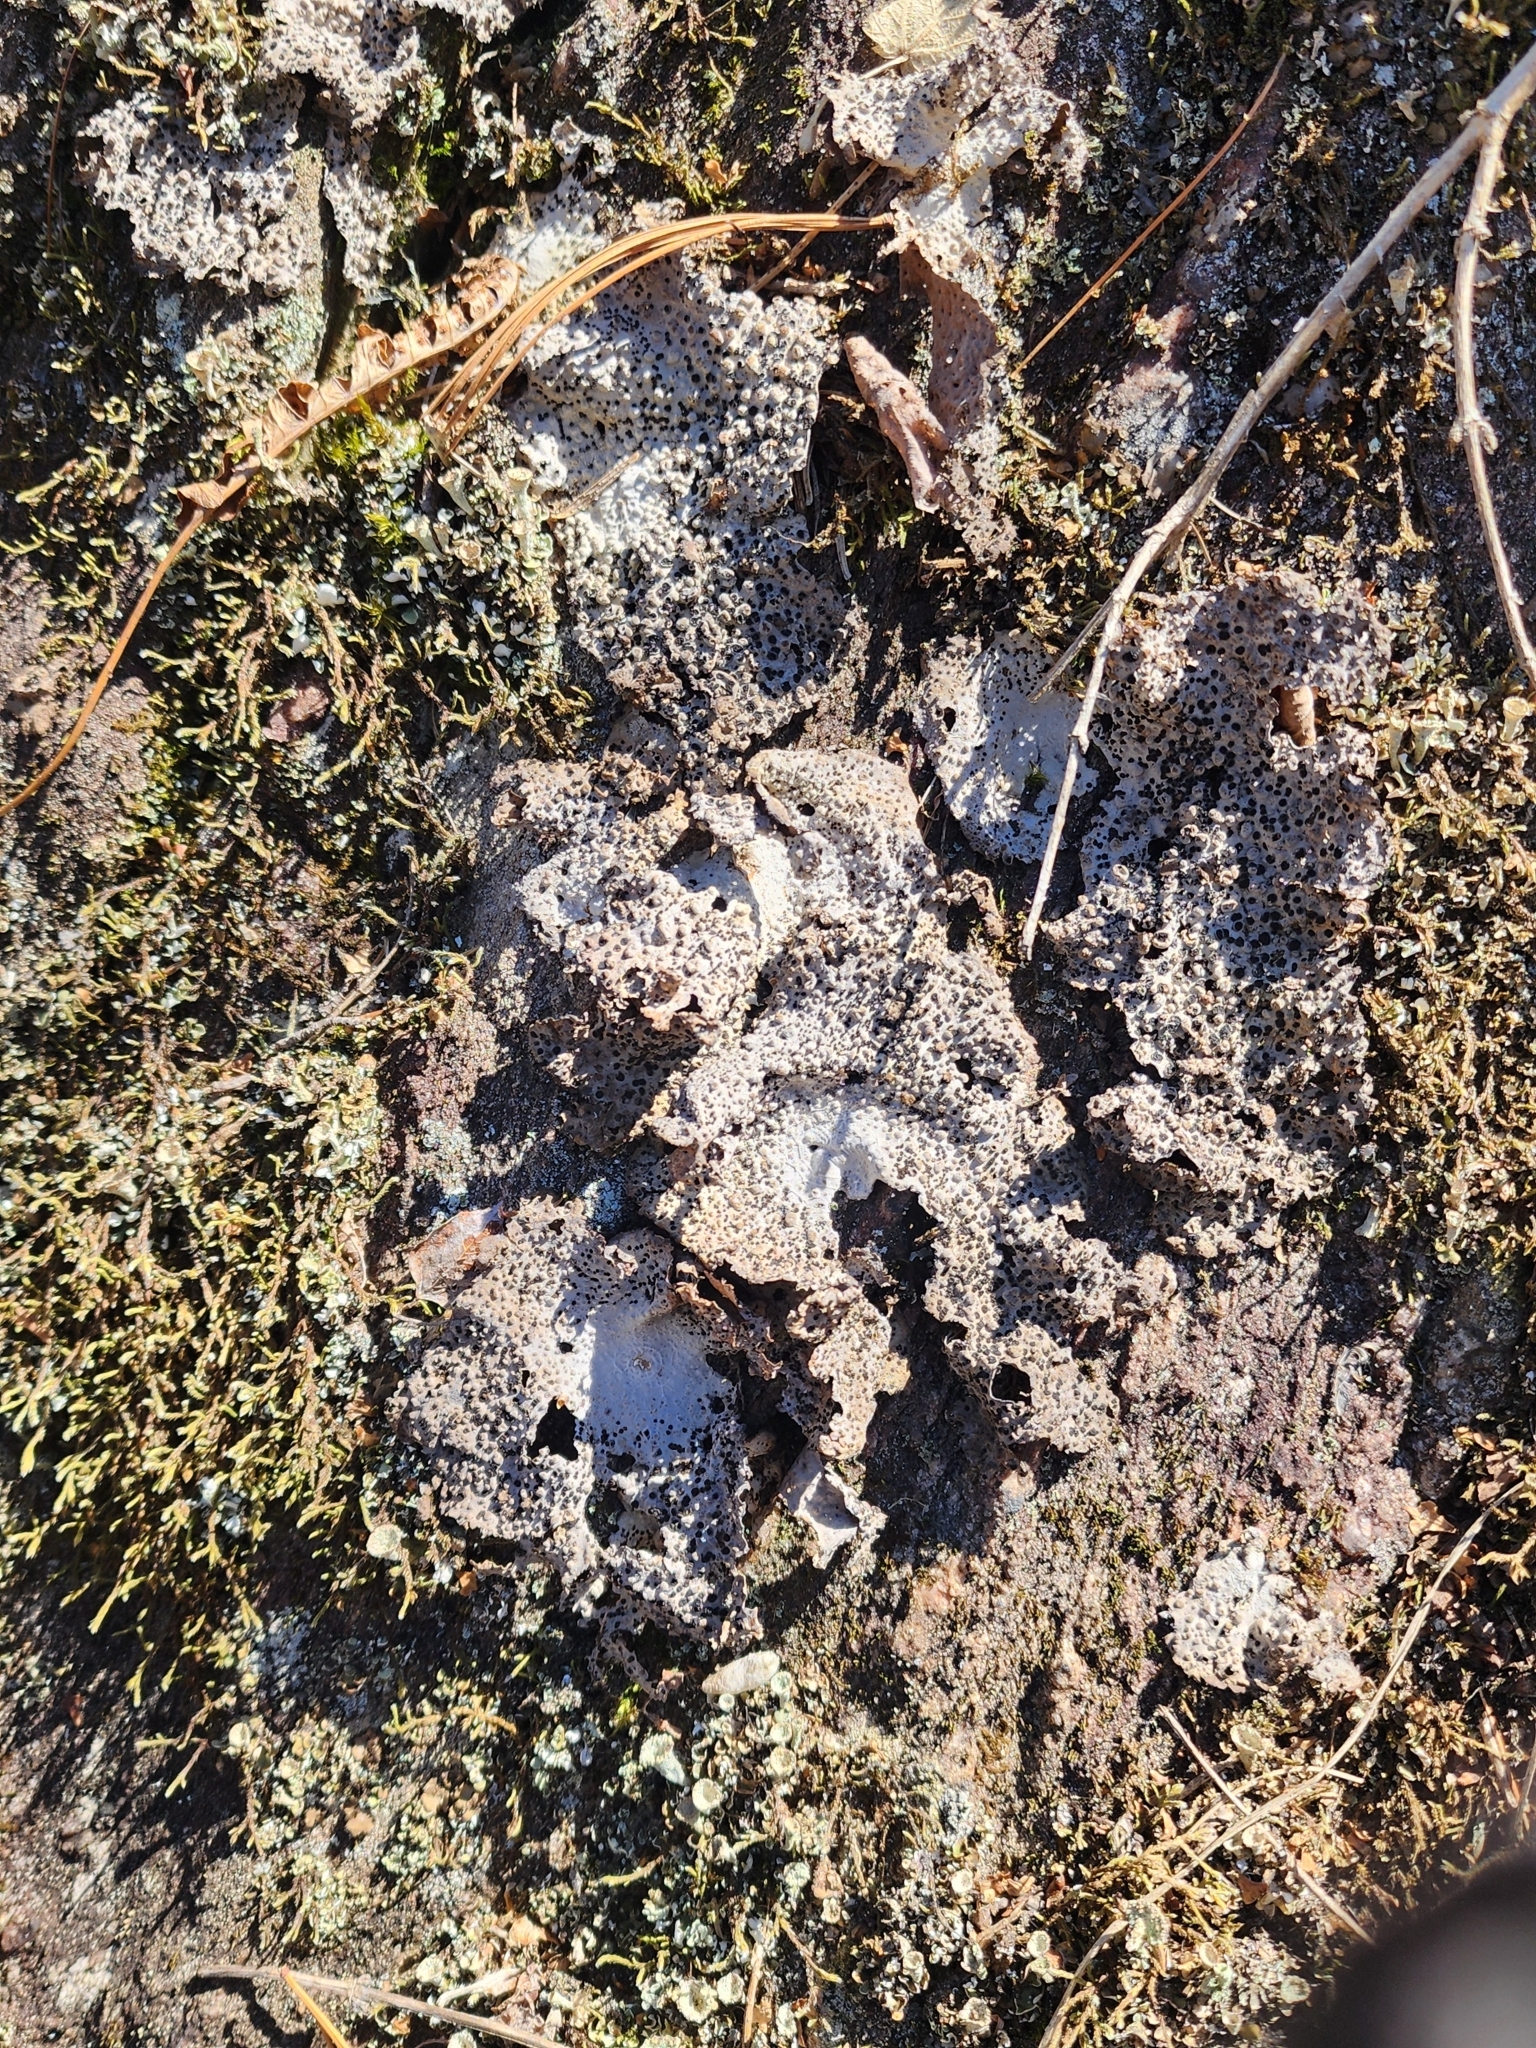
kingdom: Fungi
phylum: Ascomycota
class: Lecanoromycetes
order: Umbilicariales
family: Umbilicariaceae
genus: Lasallia
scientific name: Lasallia papulosa
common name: Common toadskin lichen
